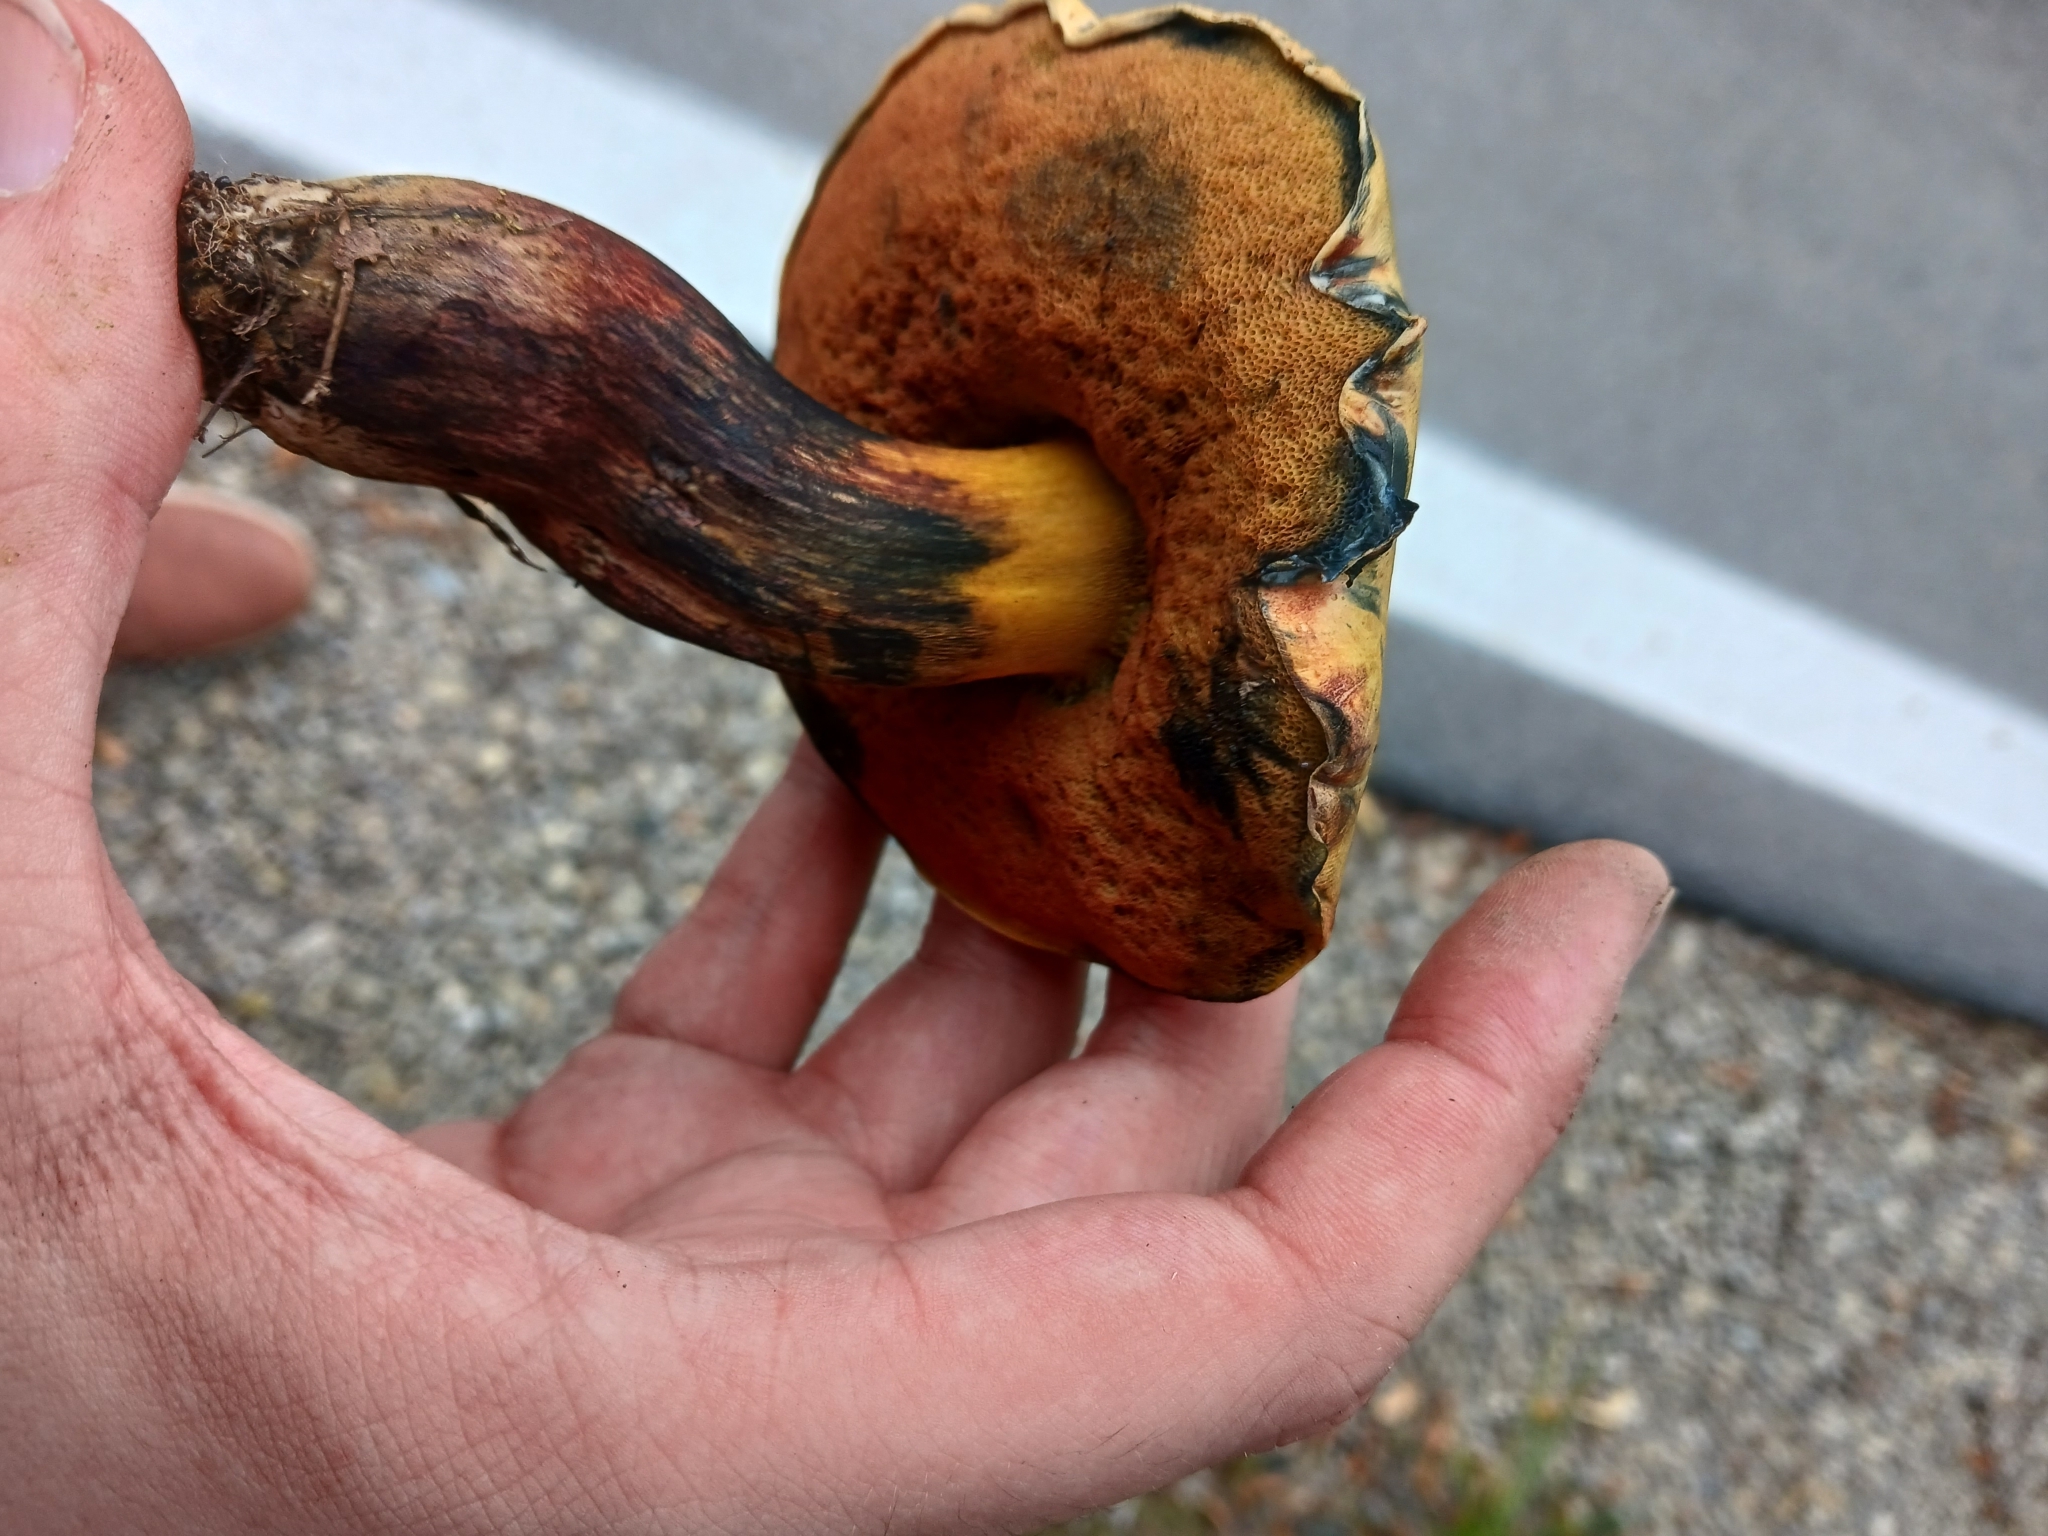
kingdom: Fungi
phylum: Basidiomycota
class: Agaricomycetes
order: Boletales
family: Boletaceae
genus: Suillellus
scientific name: Suillellus luridus
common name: Lurid bolete
